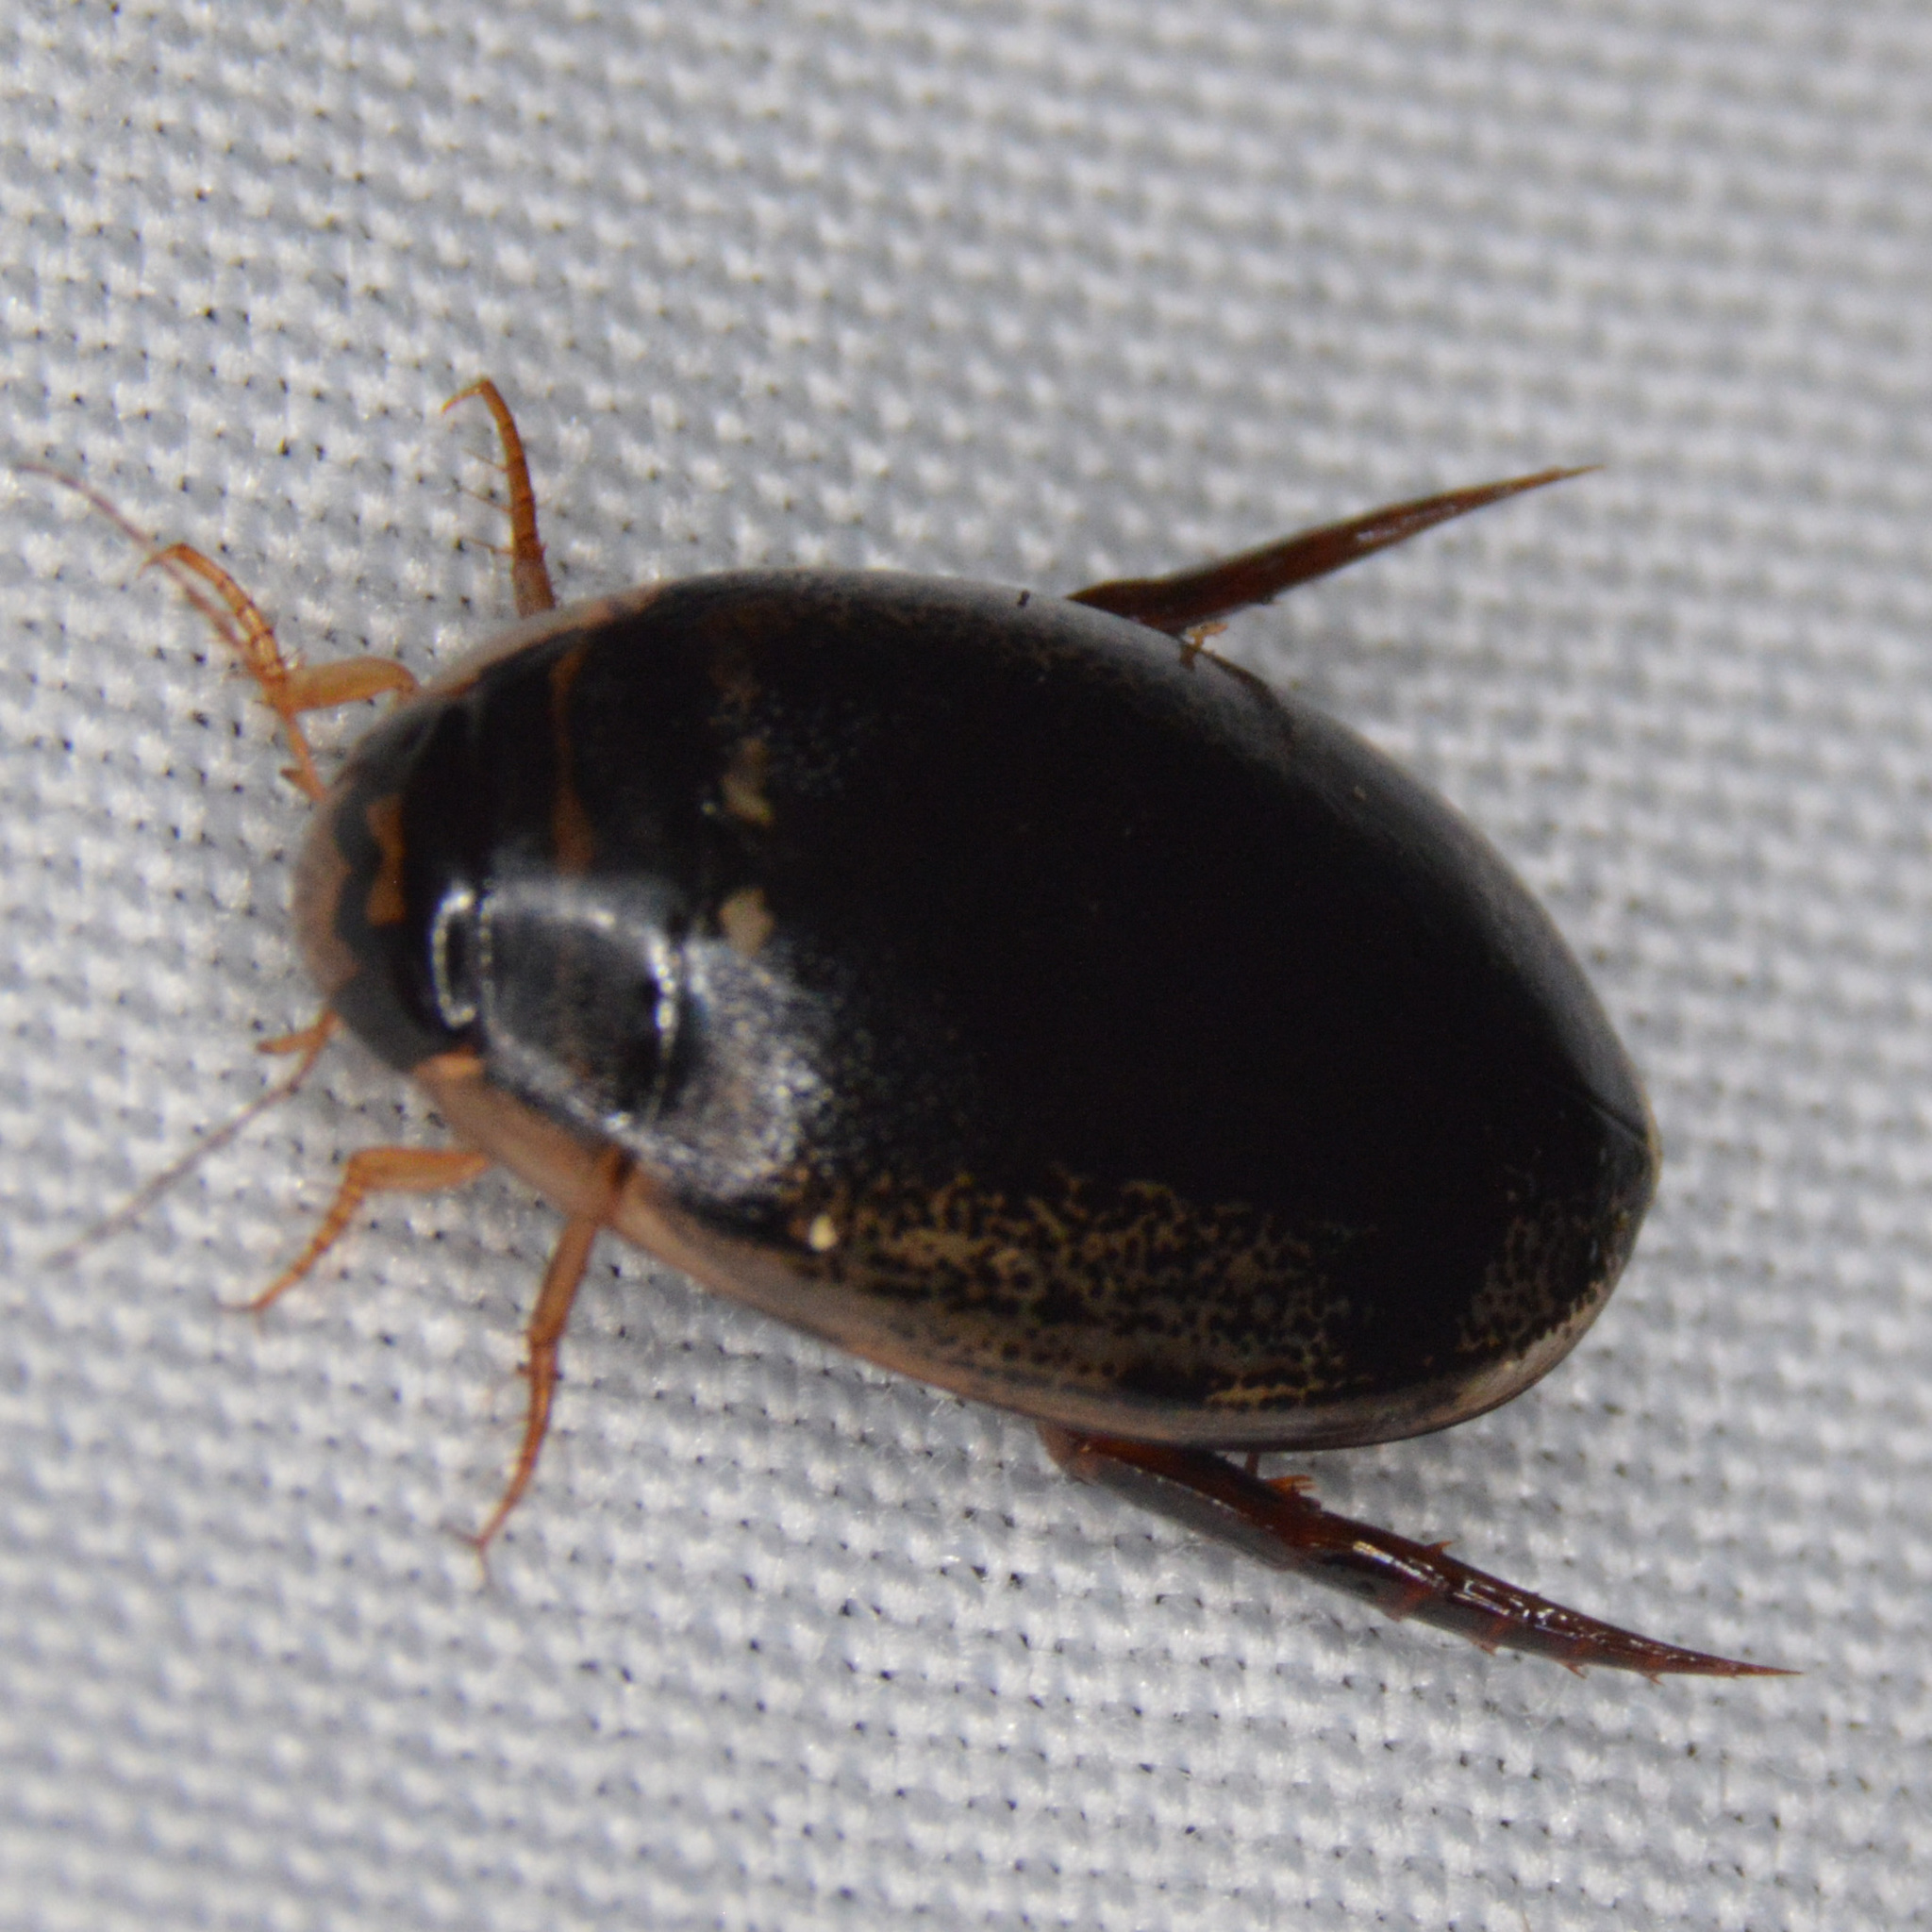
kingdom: Animalia
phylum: Arthropoda
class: Insecta
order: Coleoptera
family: Dytiscidae
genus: Thermonectus
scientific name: Thermonectus basillaris
